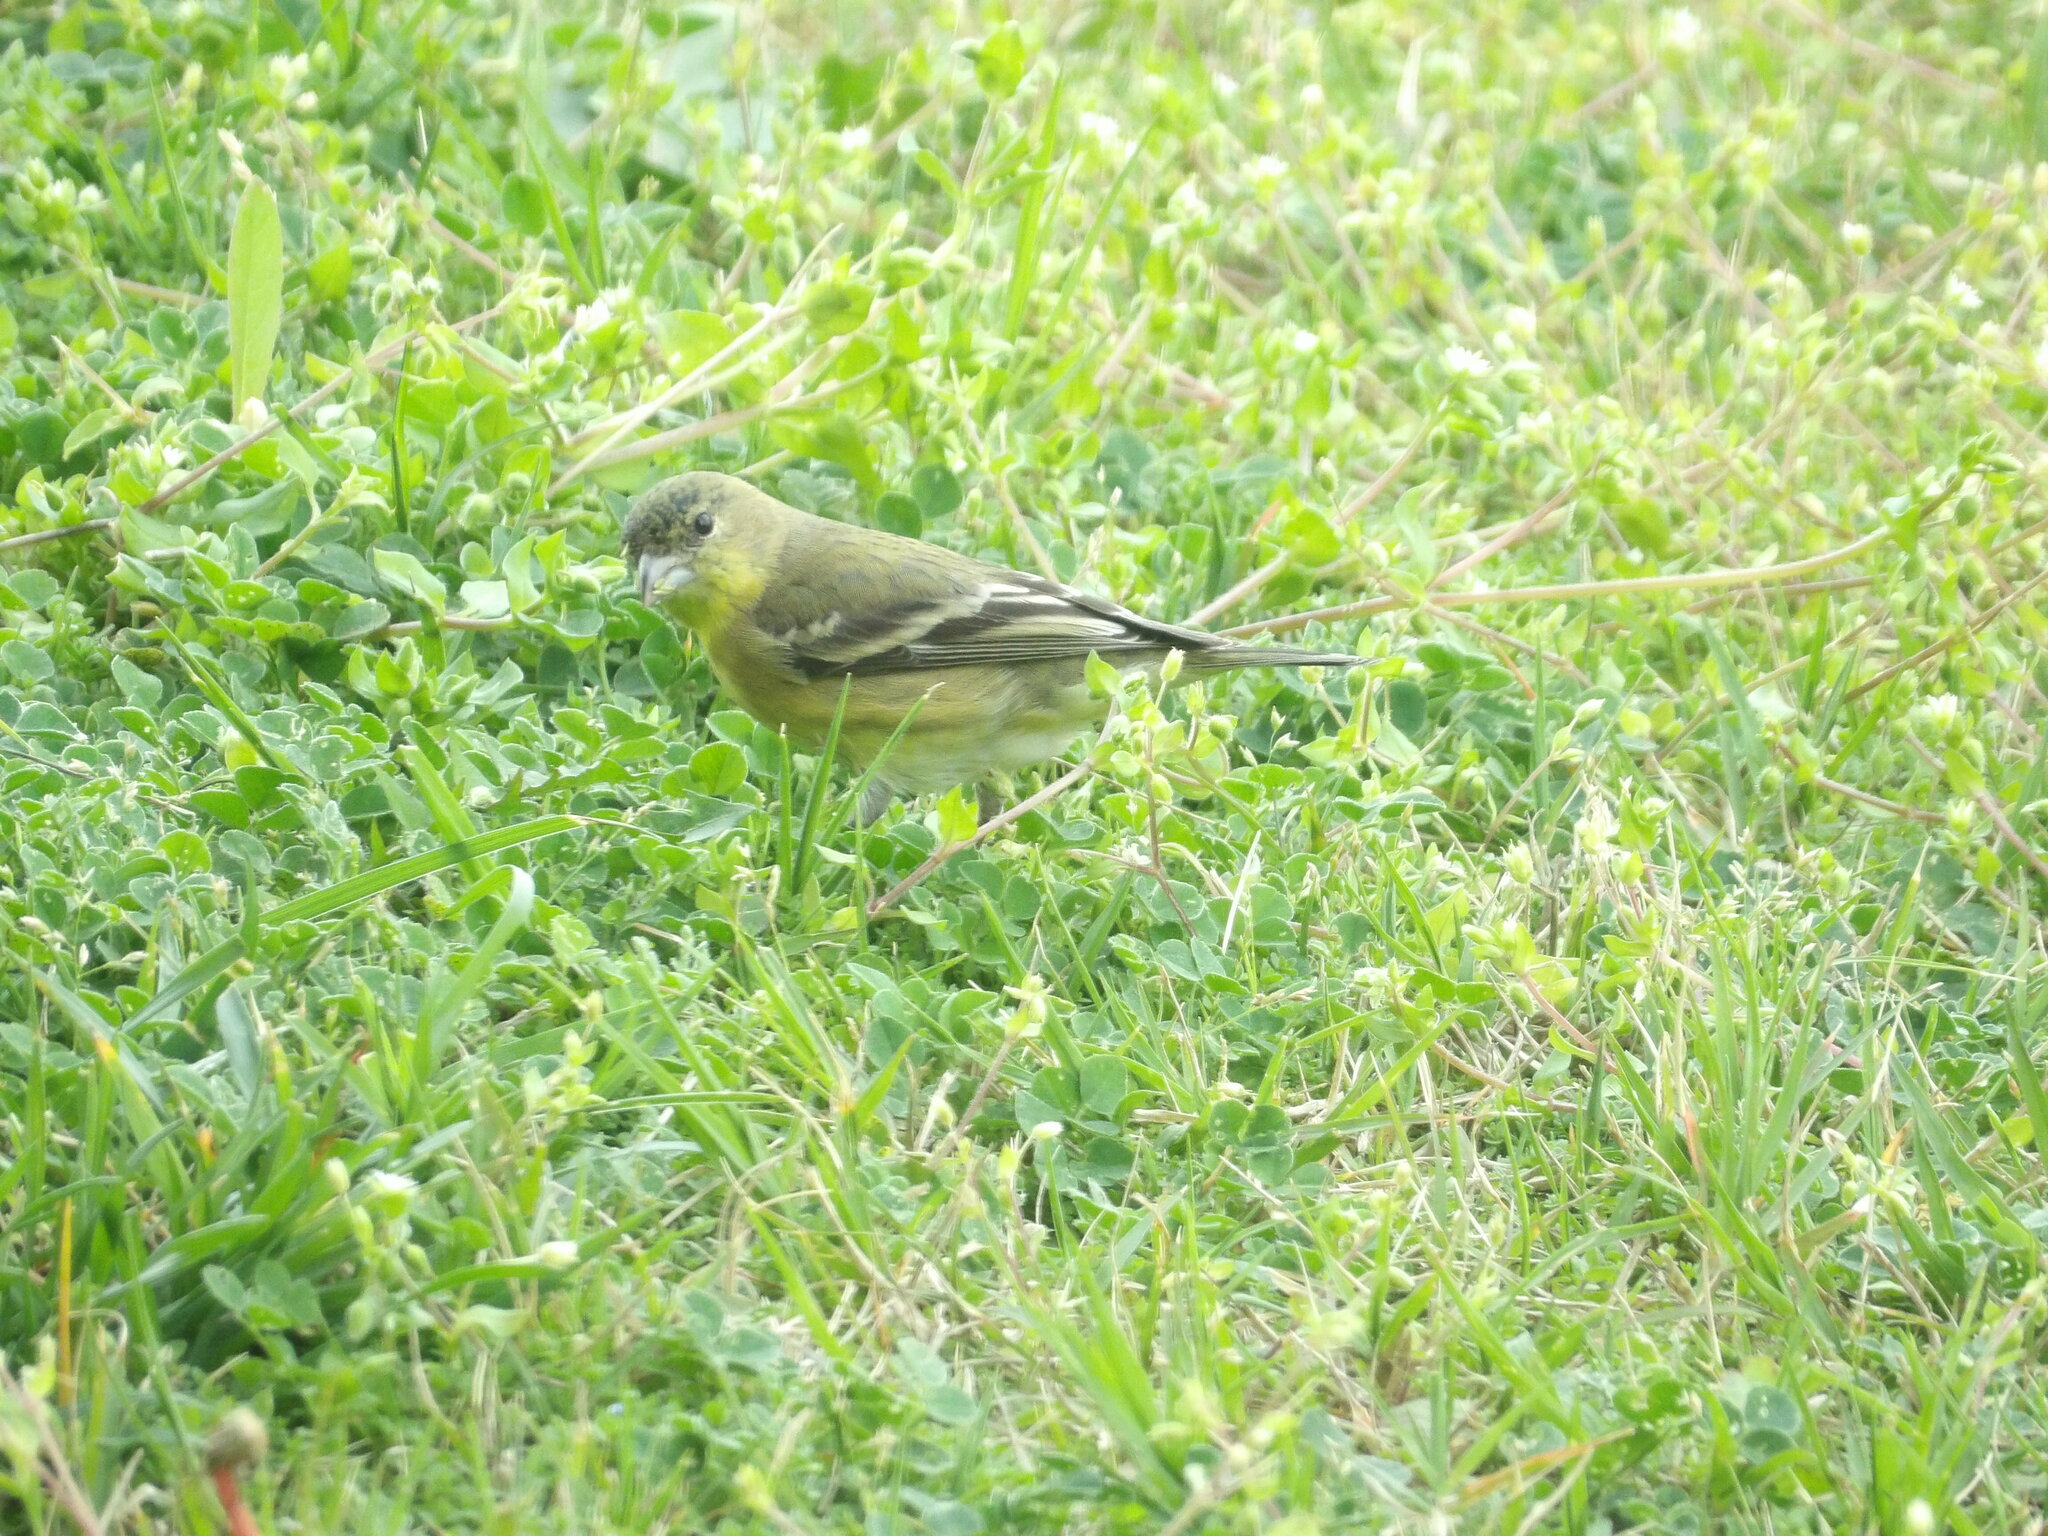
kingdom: Animalia
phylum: Chordata
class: Aves
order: Passeriformes
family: Fringillidae
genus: Spinus
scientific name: Spinus psaltria
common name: Lesser goldfinch
